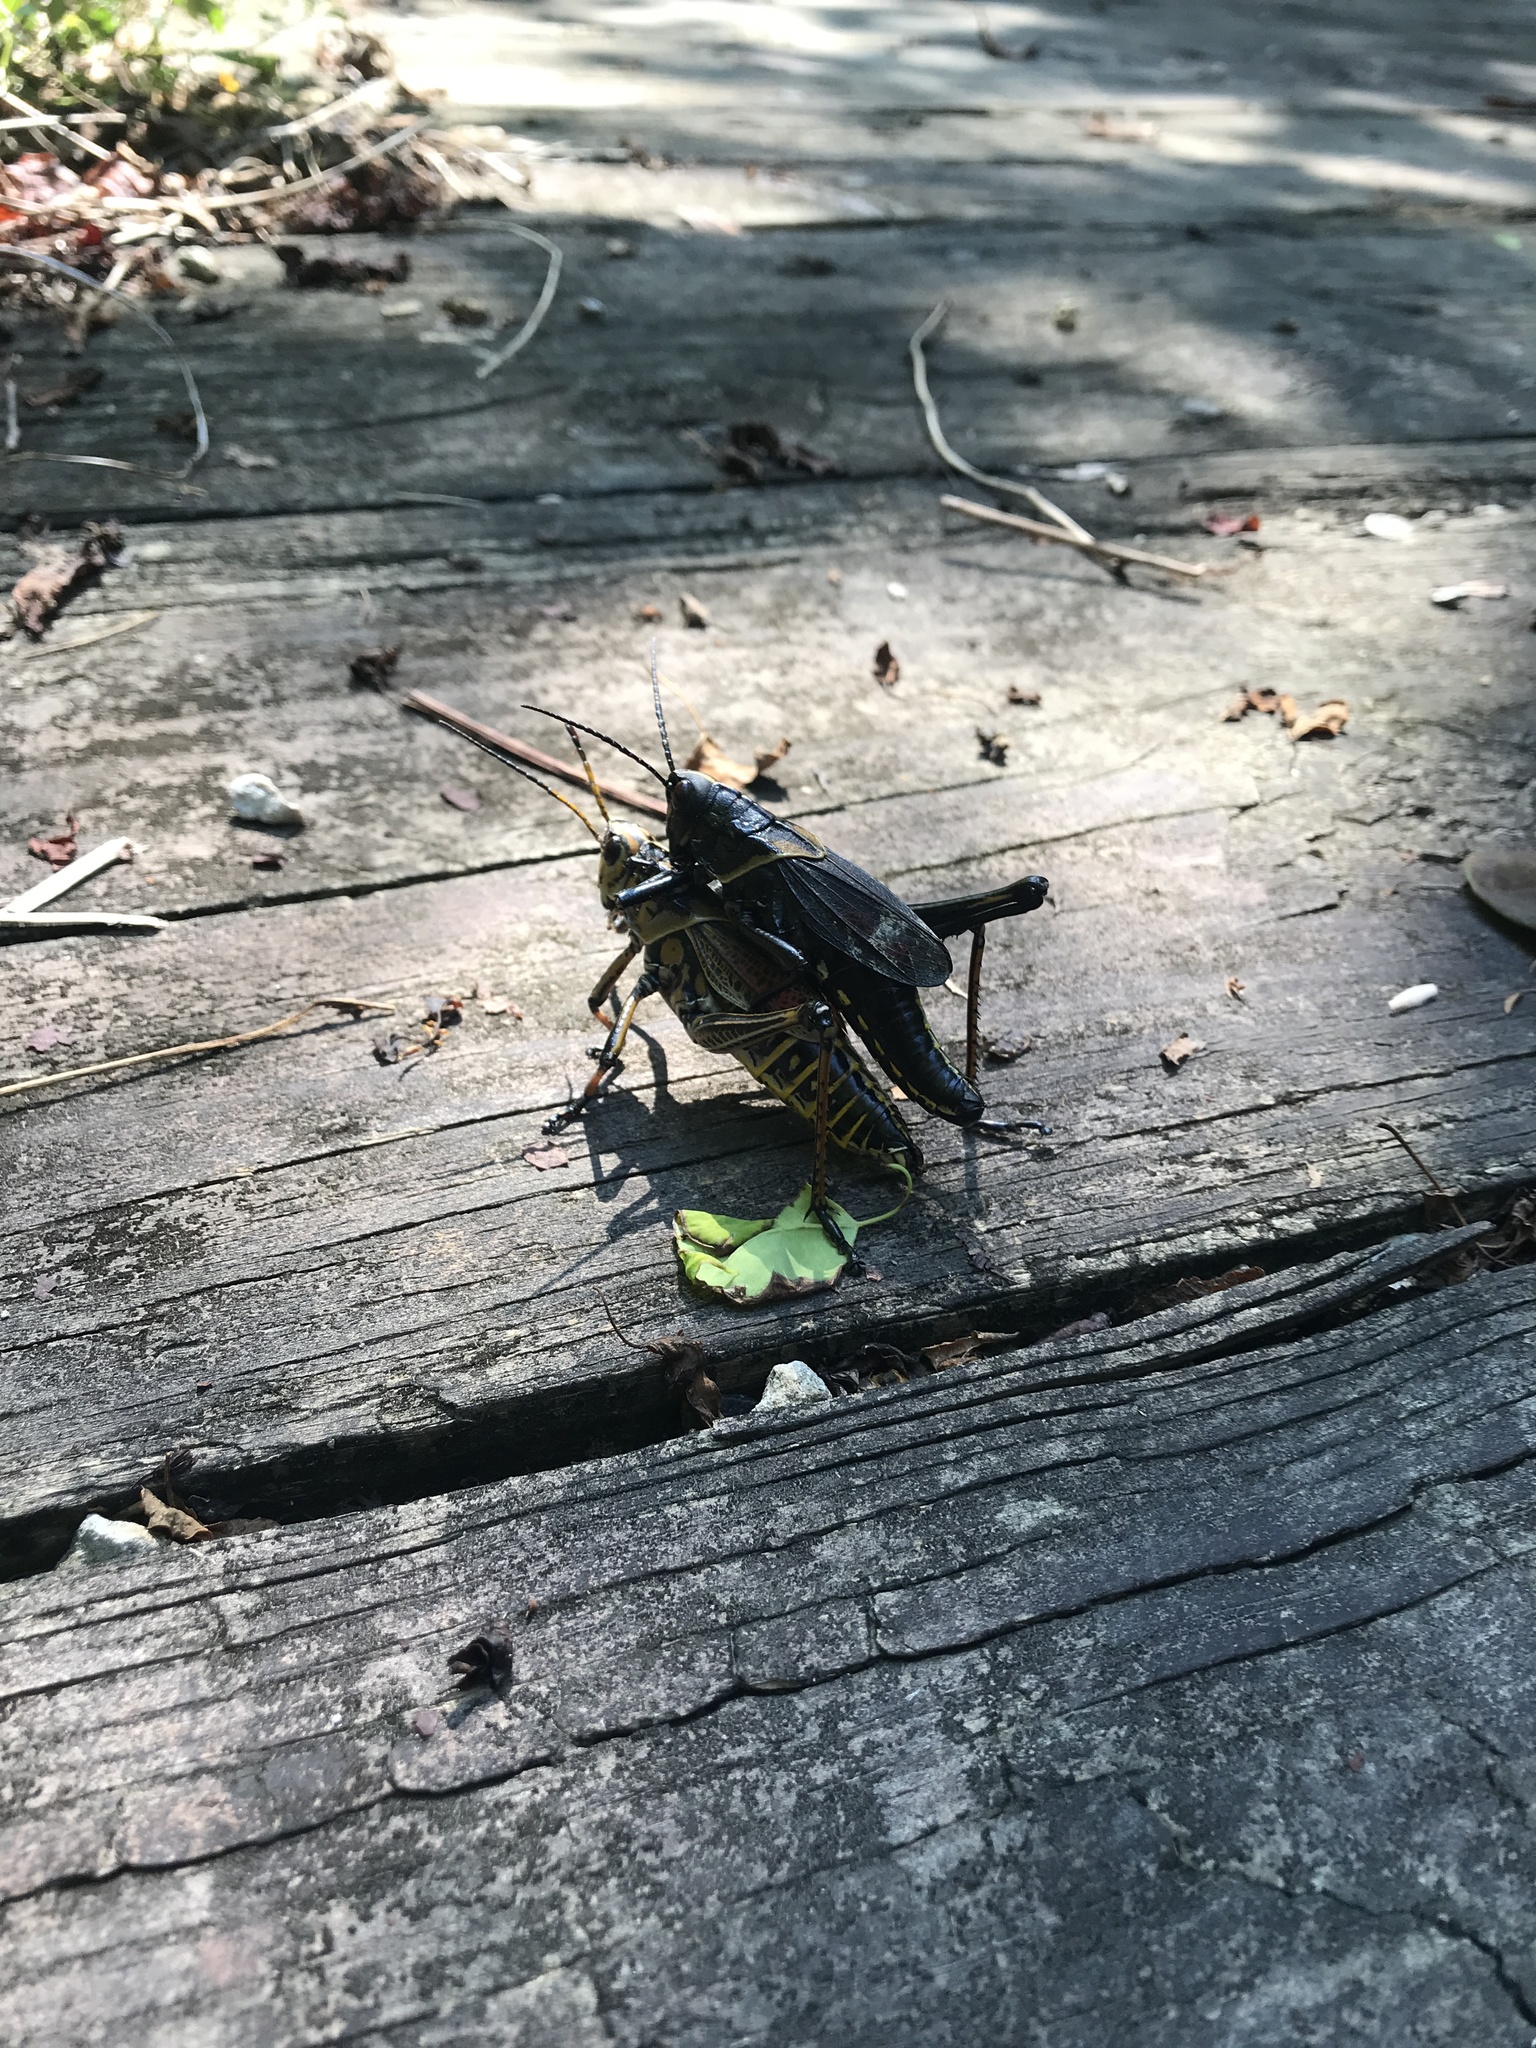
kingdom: Animalia
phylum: Arthropoda
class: Insecta
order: Orthoptera
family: Romaleidae
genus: Romalea
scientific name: Romalea microptera
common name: Eastern lubber grasshopper
